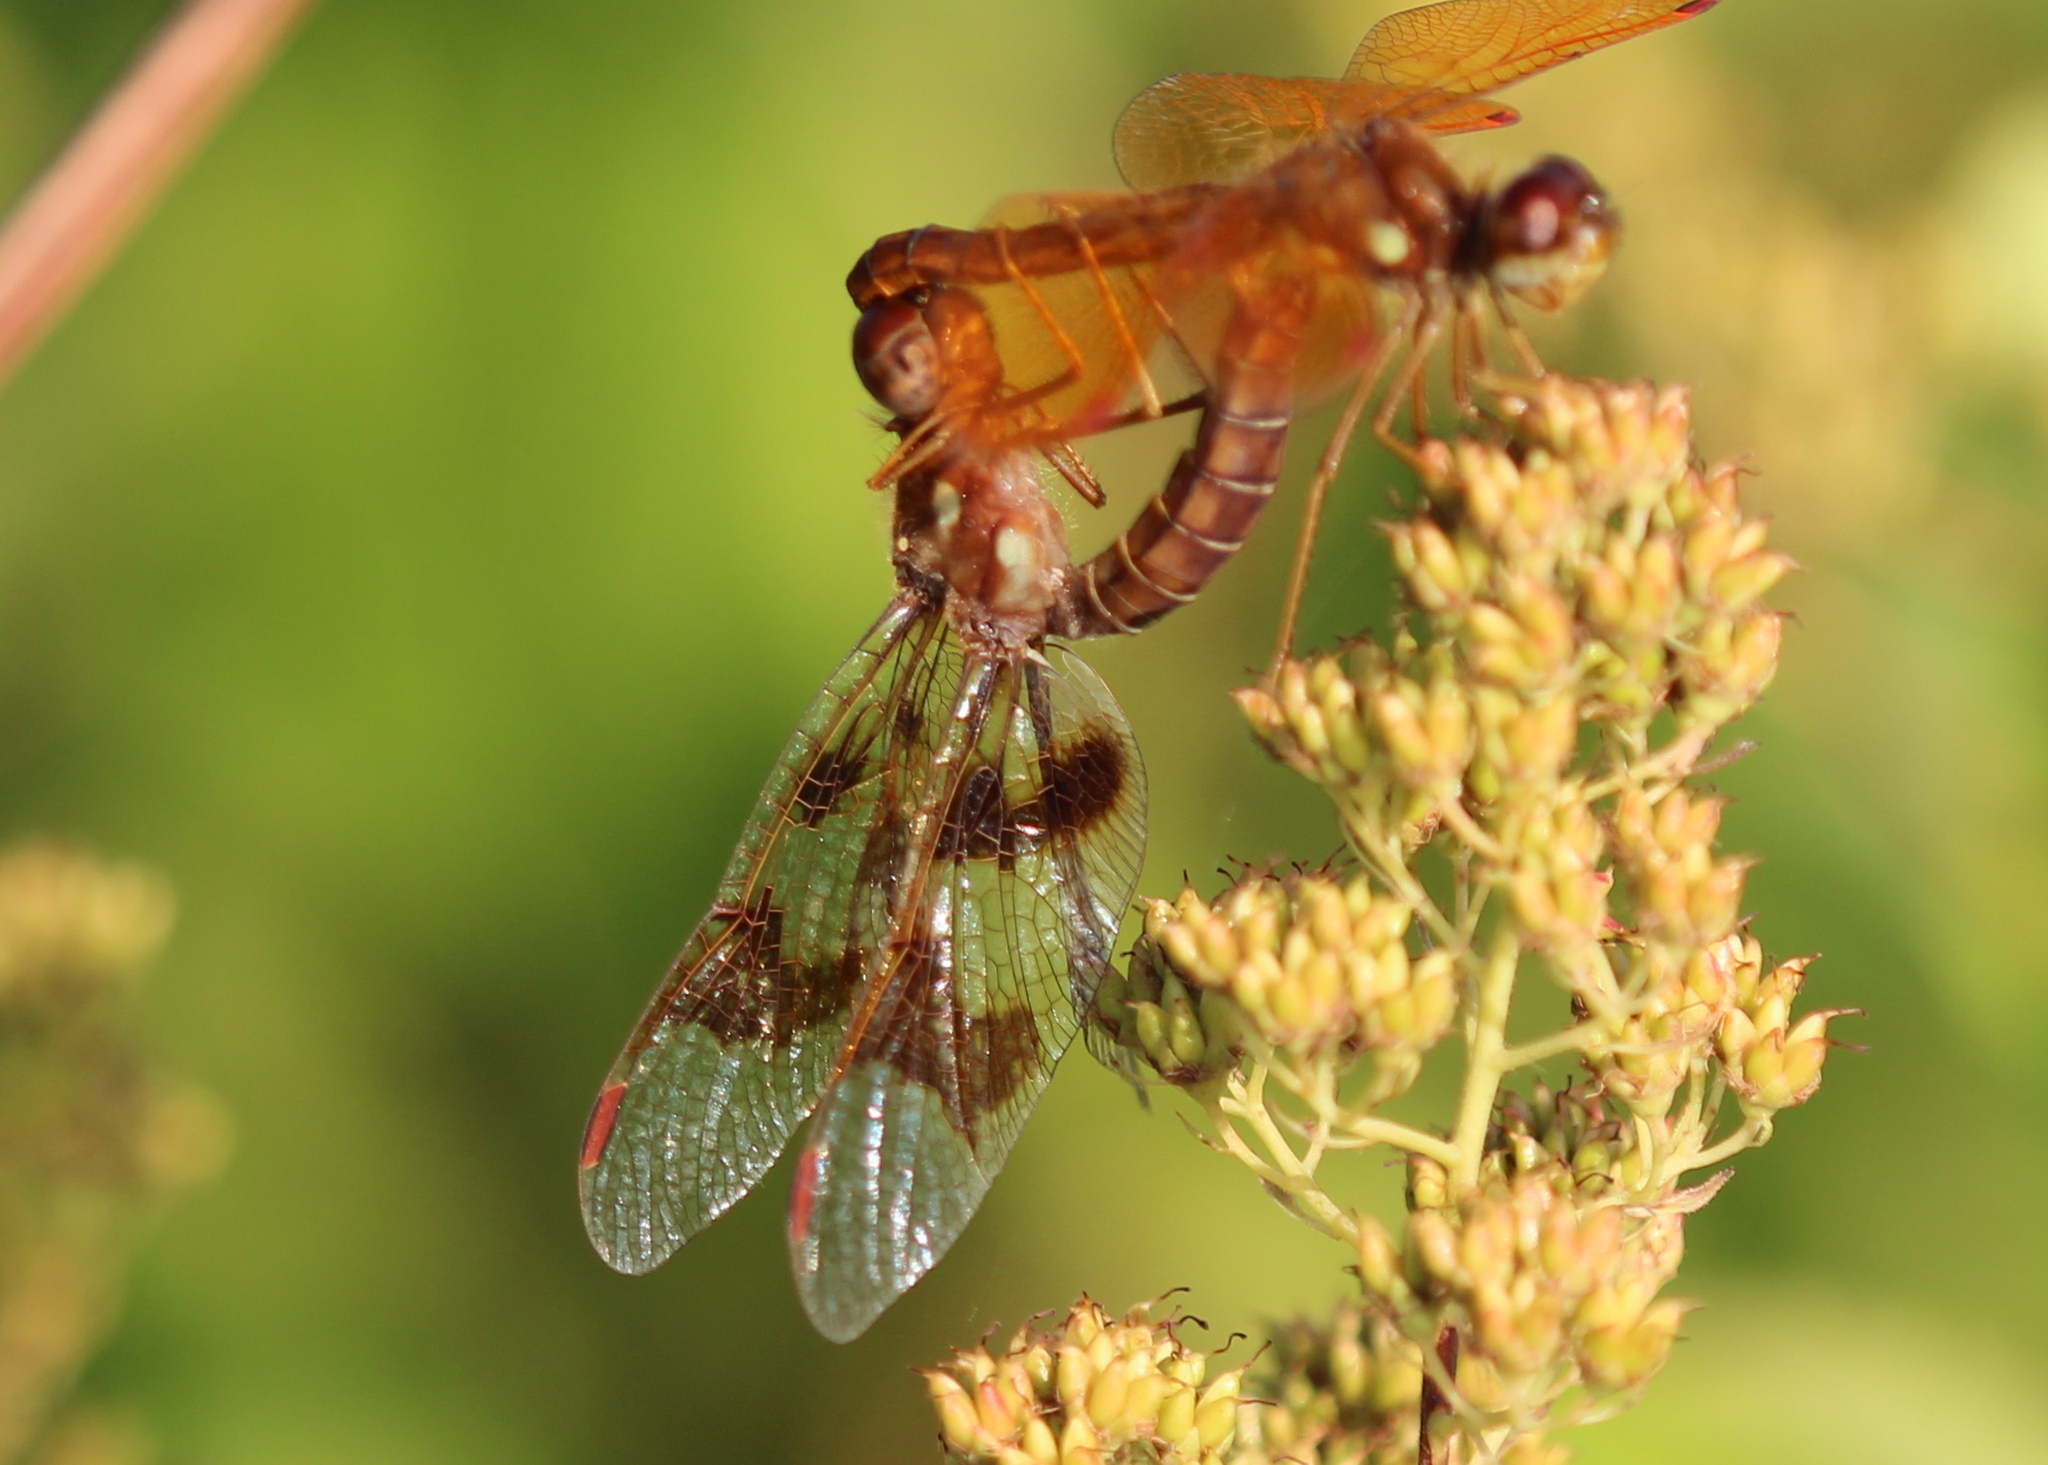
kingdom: Animalia
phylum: Arthropoda
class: Insecta
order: Odonata
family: Libellulidae
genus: Perithemis
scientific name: Perithemis tenera
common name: Eastern amberwing
